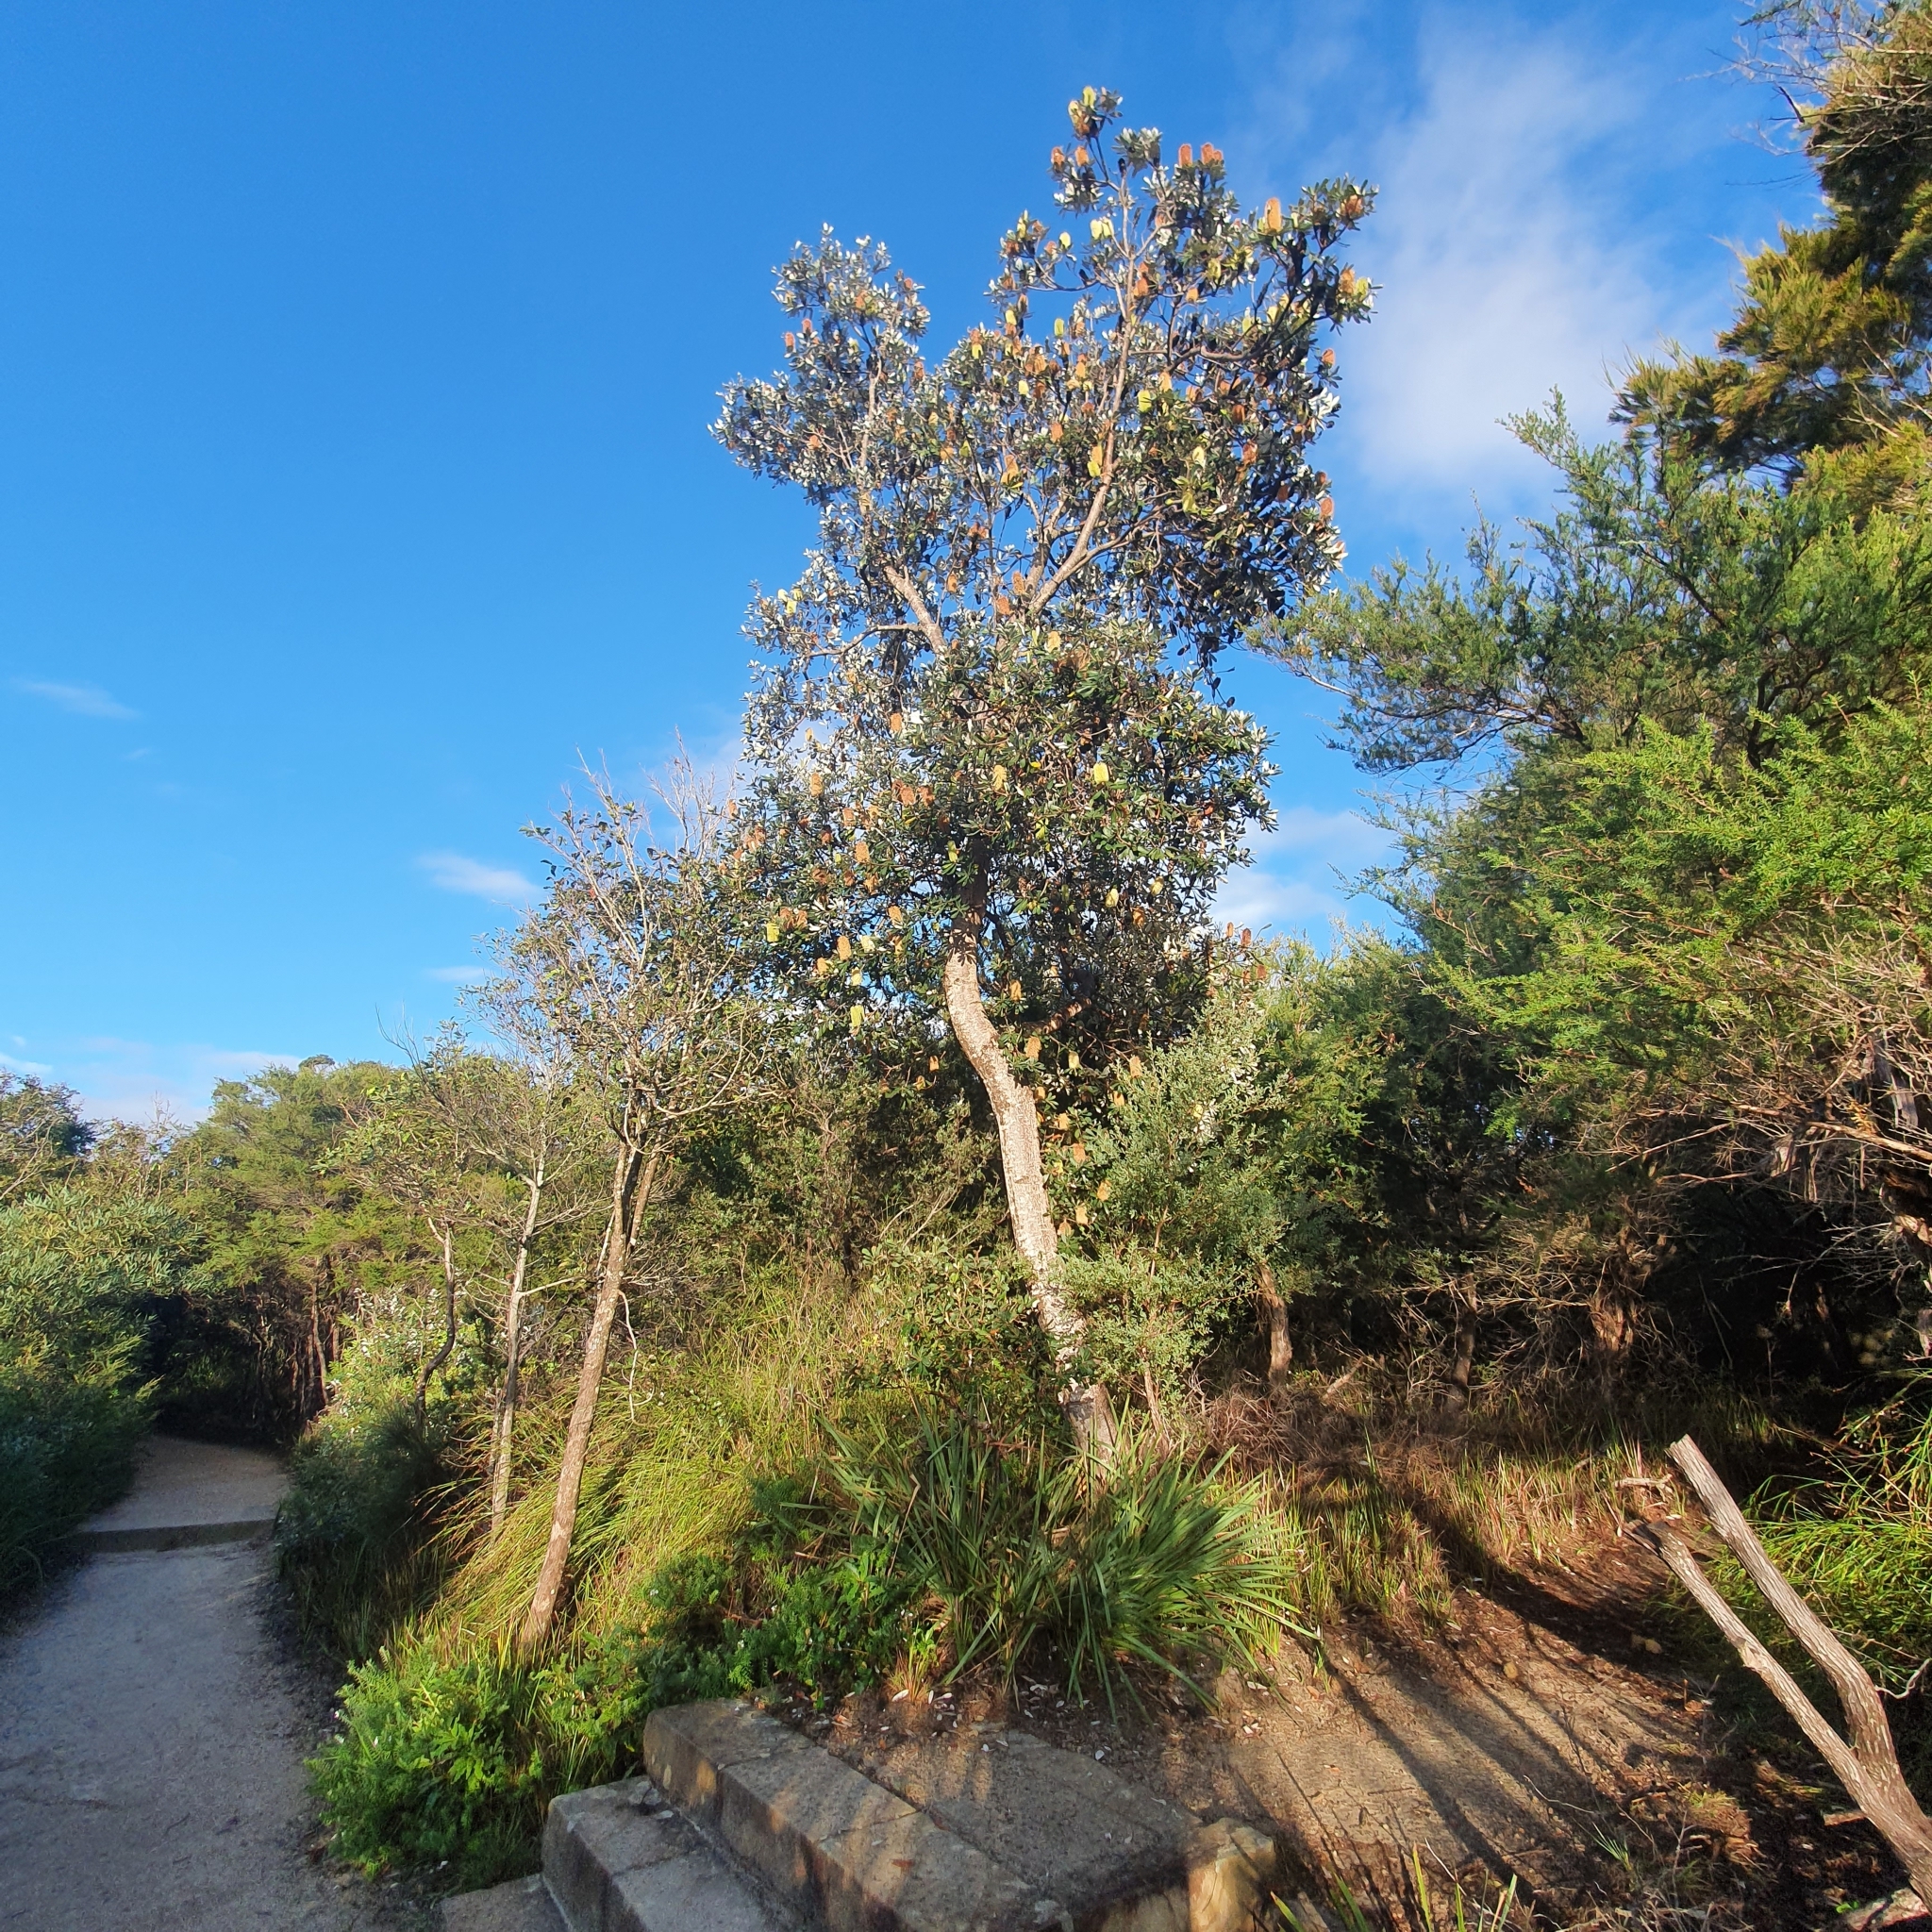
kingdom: Plantae
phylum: Tracheophyta
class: Magnoliopsida
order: Proteales
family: Proteaceae
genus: Banksia
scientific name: Banksia integrifolia
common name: White-honeysuckle
